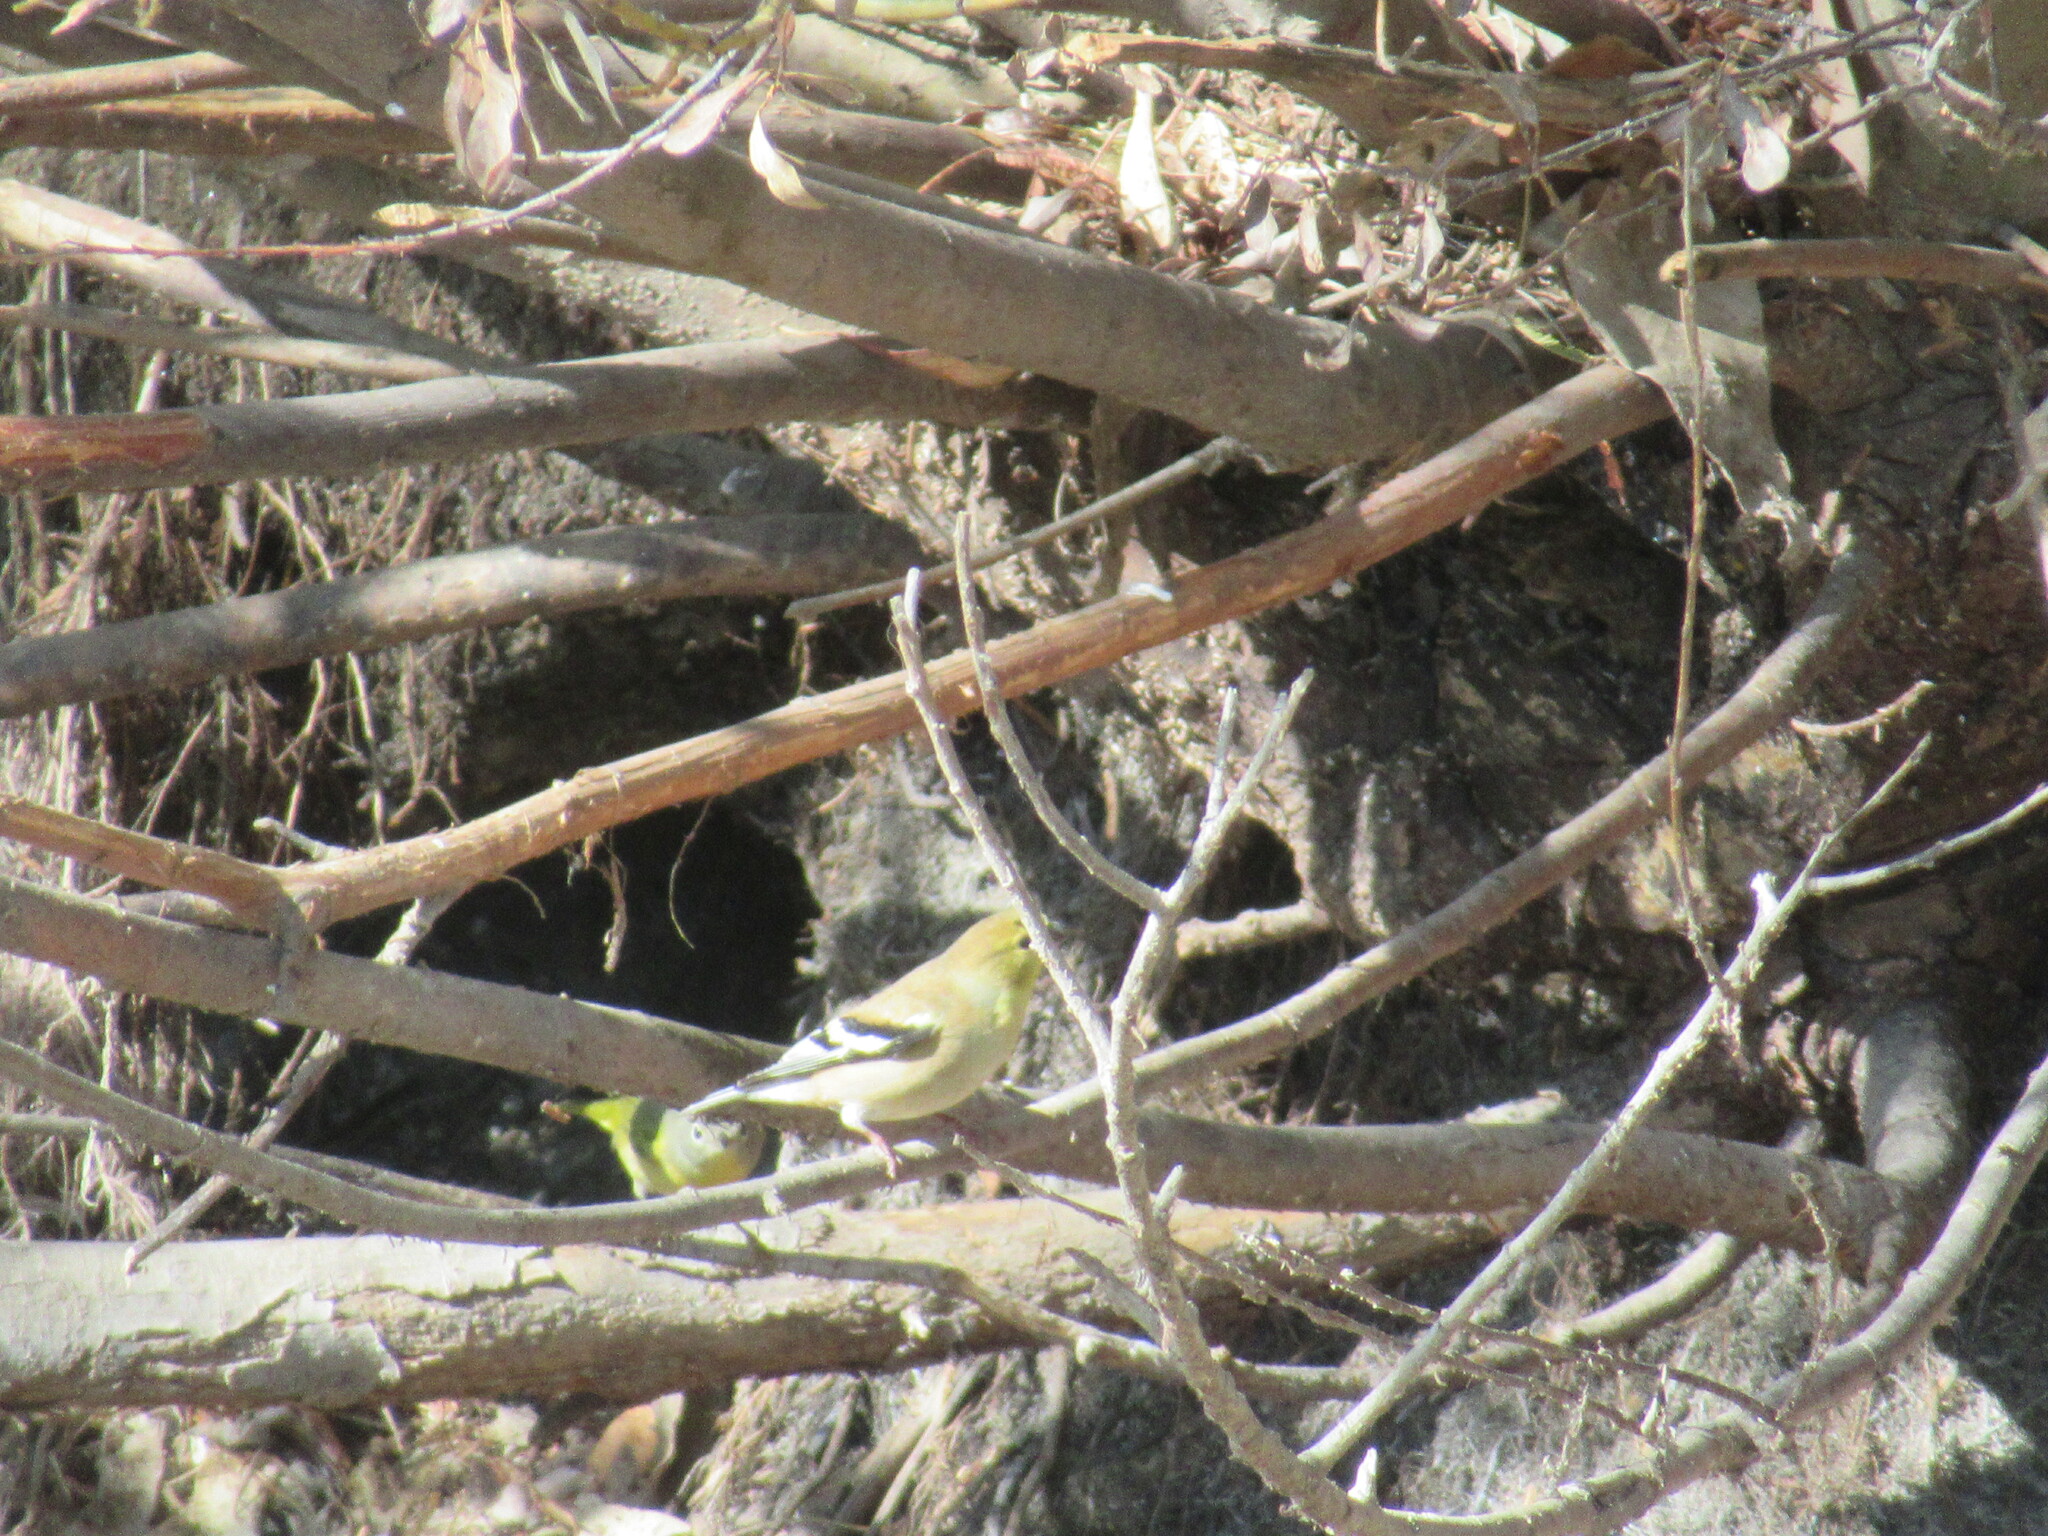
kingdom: Animalia
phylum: Chordata
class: Aves
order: Passeriformes
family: Fringillidae
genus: Spinus
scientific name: Spinus tristis
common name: American goldfinch
